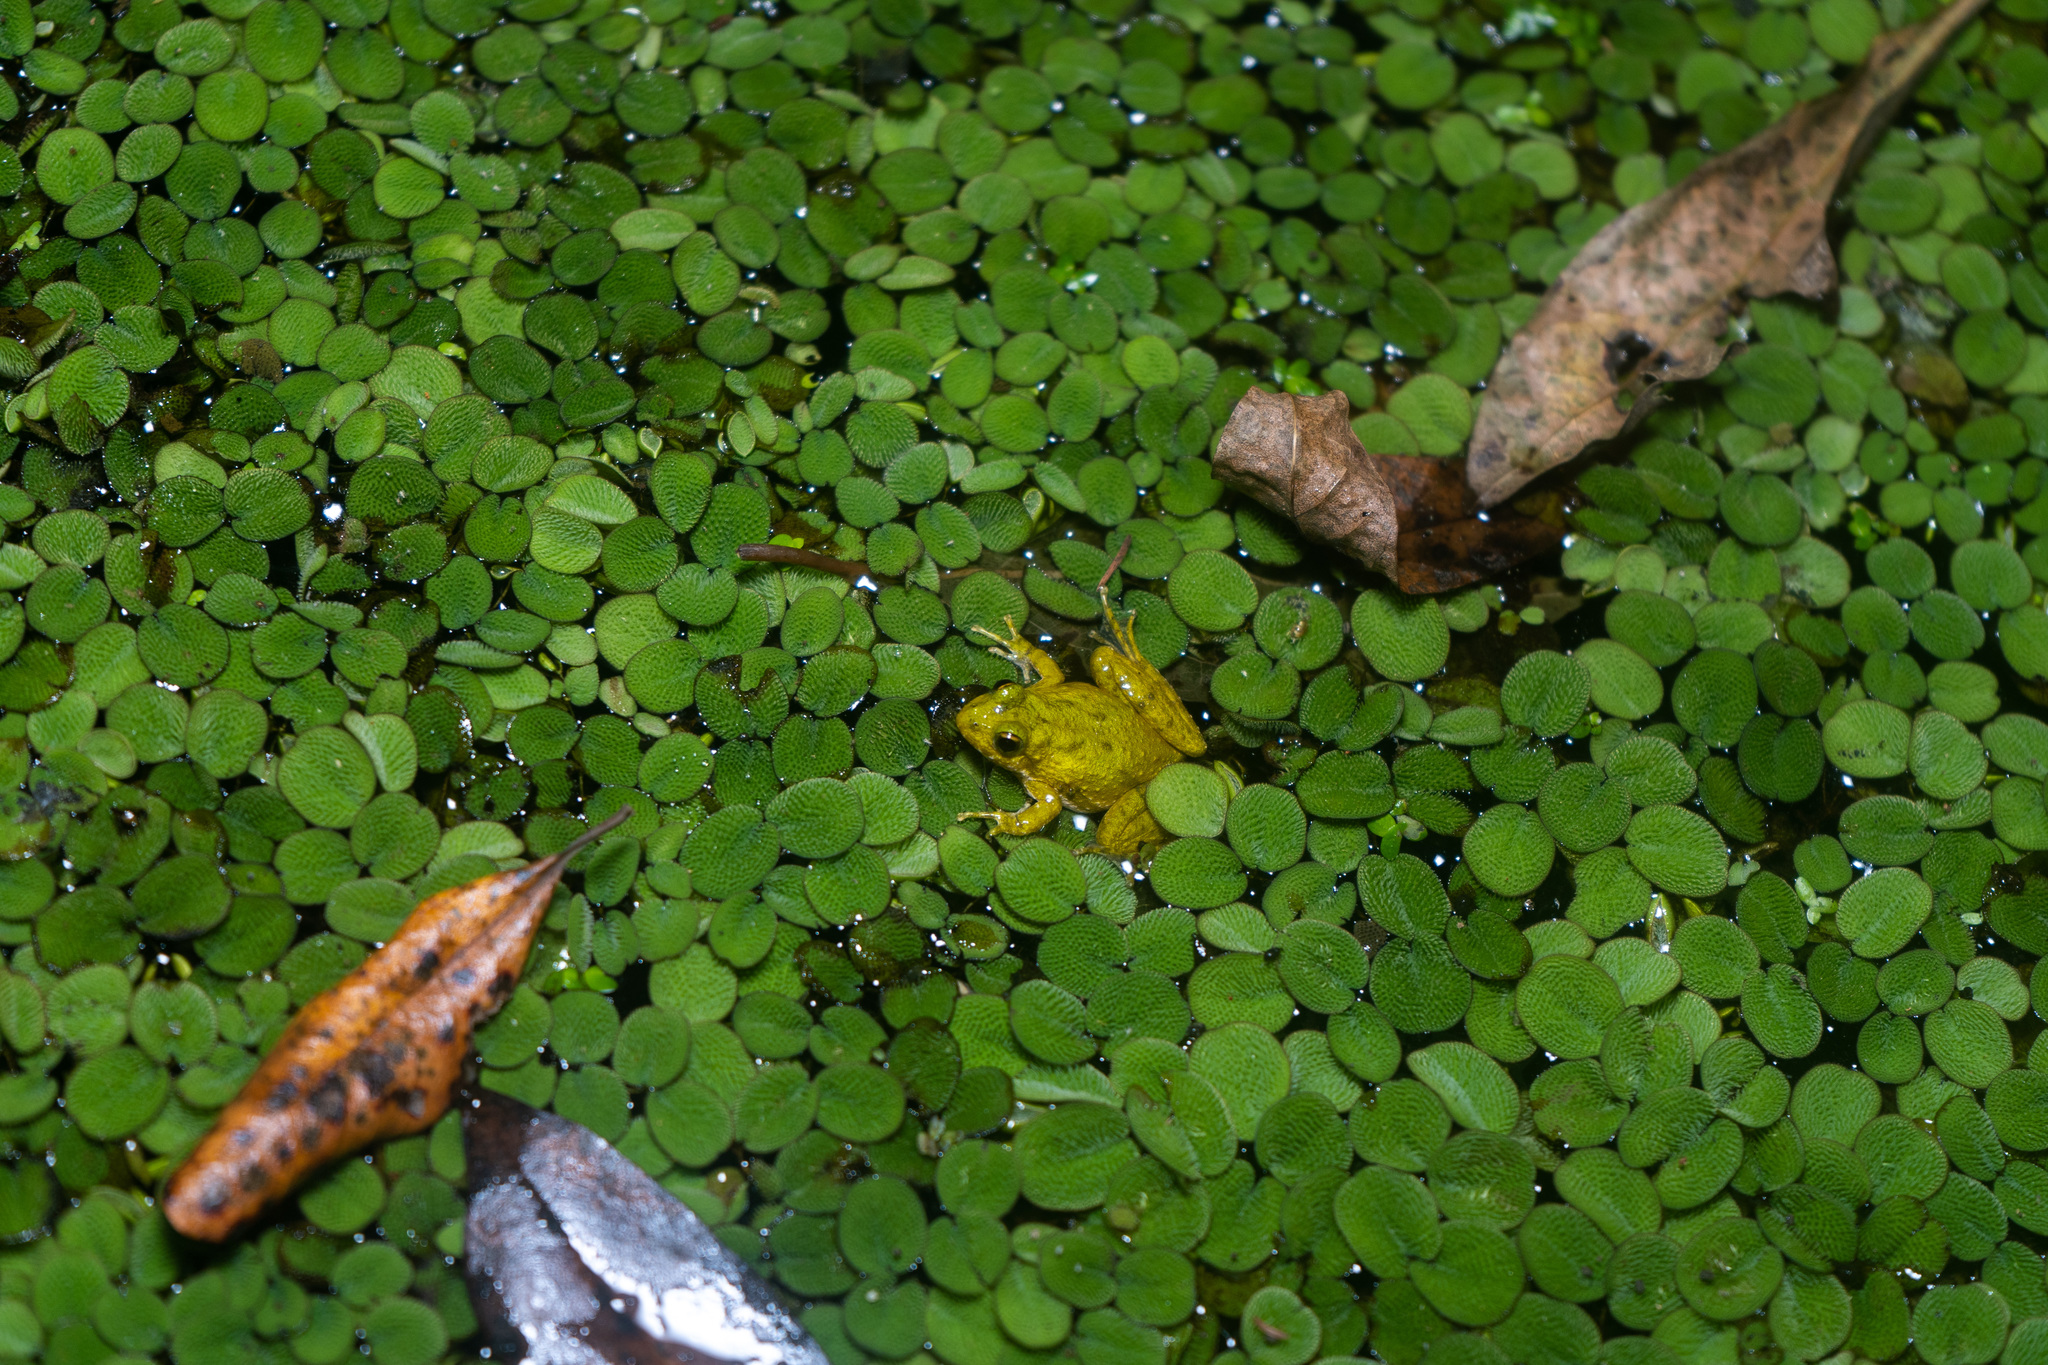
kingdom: Animalia
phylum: Chordata
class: Amphibia
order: Anura
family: Hylidae
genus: Acris
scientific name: Acris
